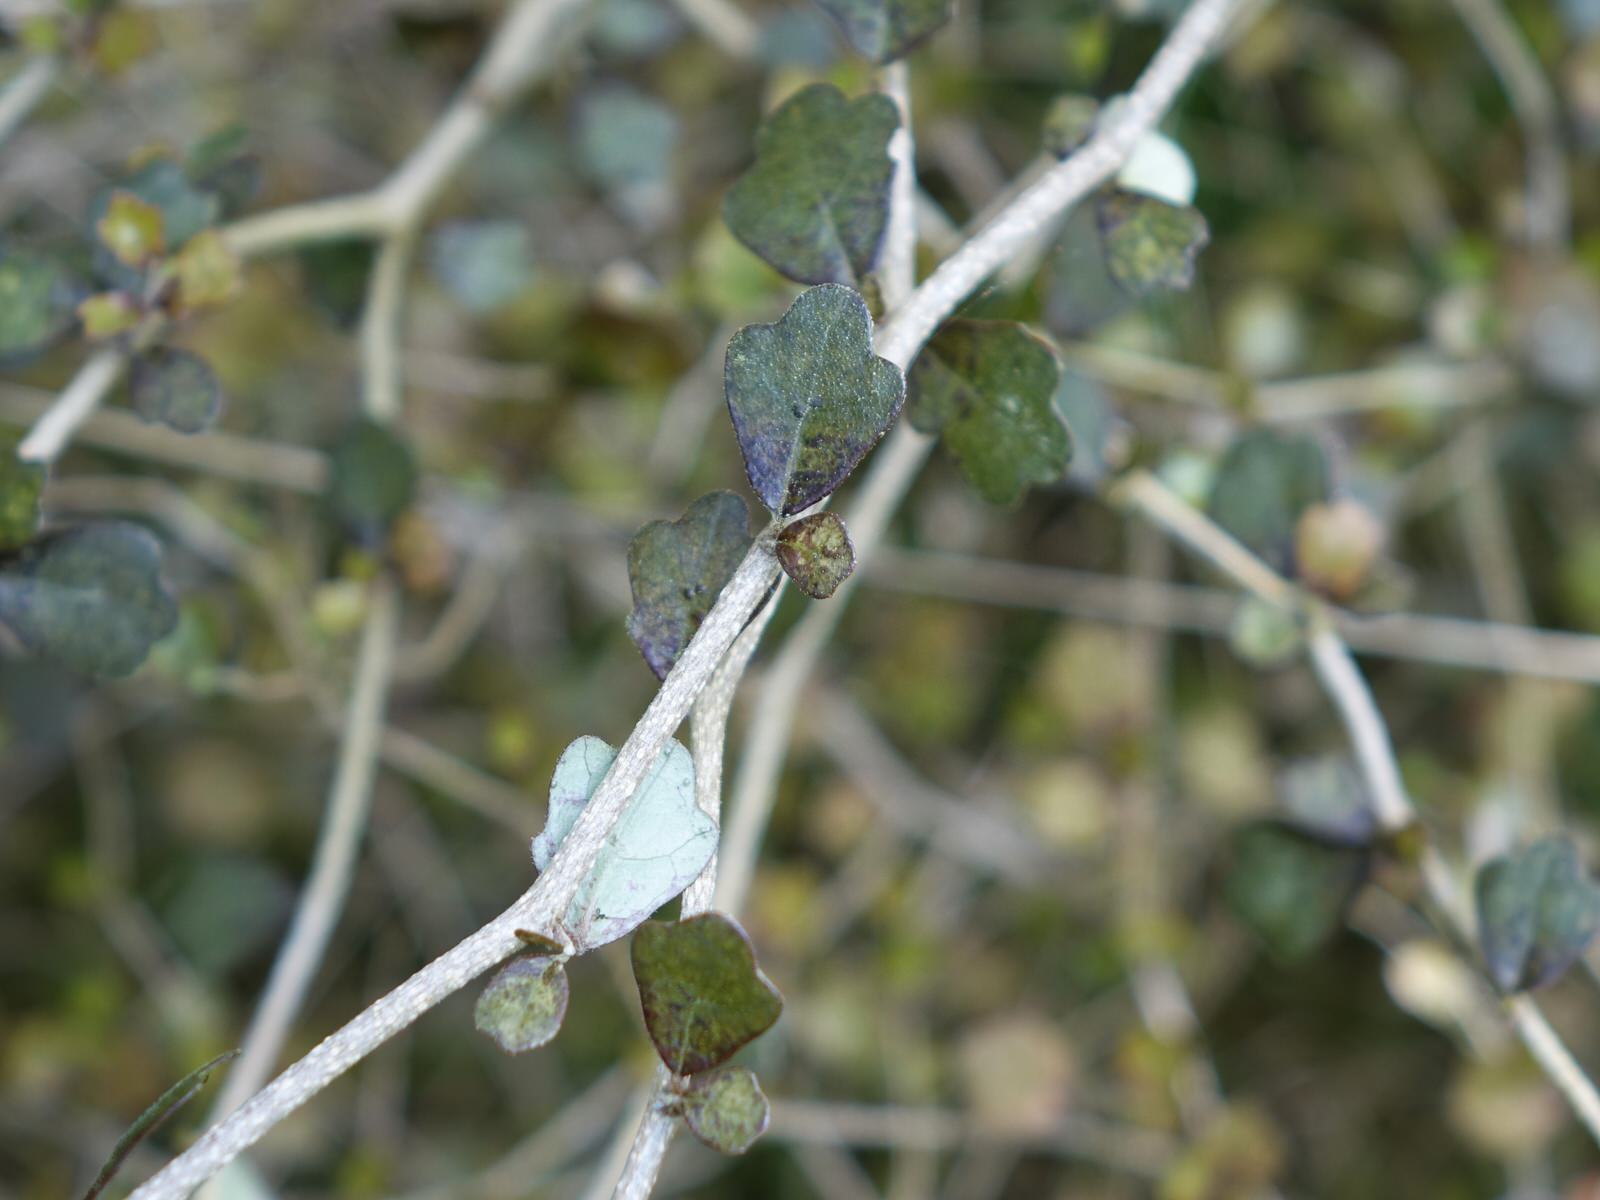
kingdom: Plantae
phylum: Tracheophyta
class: Magnoliopsida
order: Apiales
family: Pennantiaceae
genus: Pennantia
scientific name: Pennantia corymbosa
